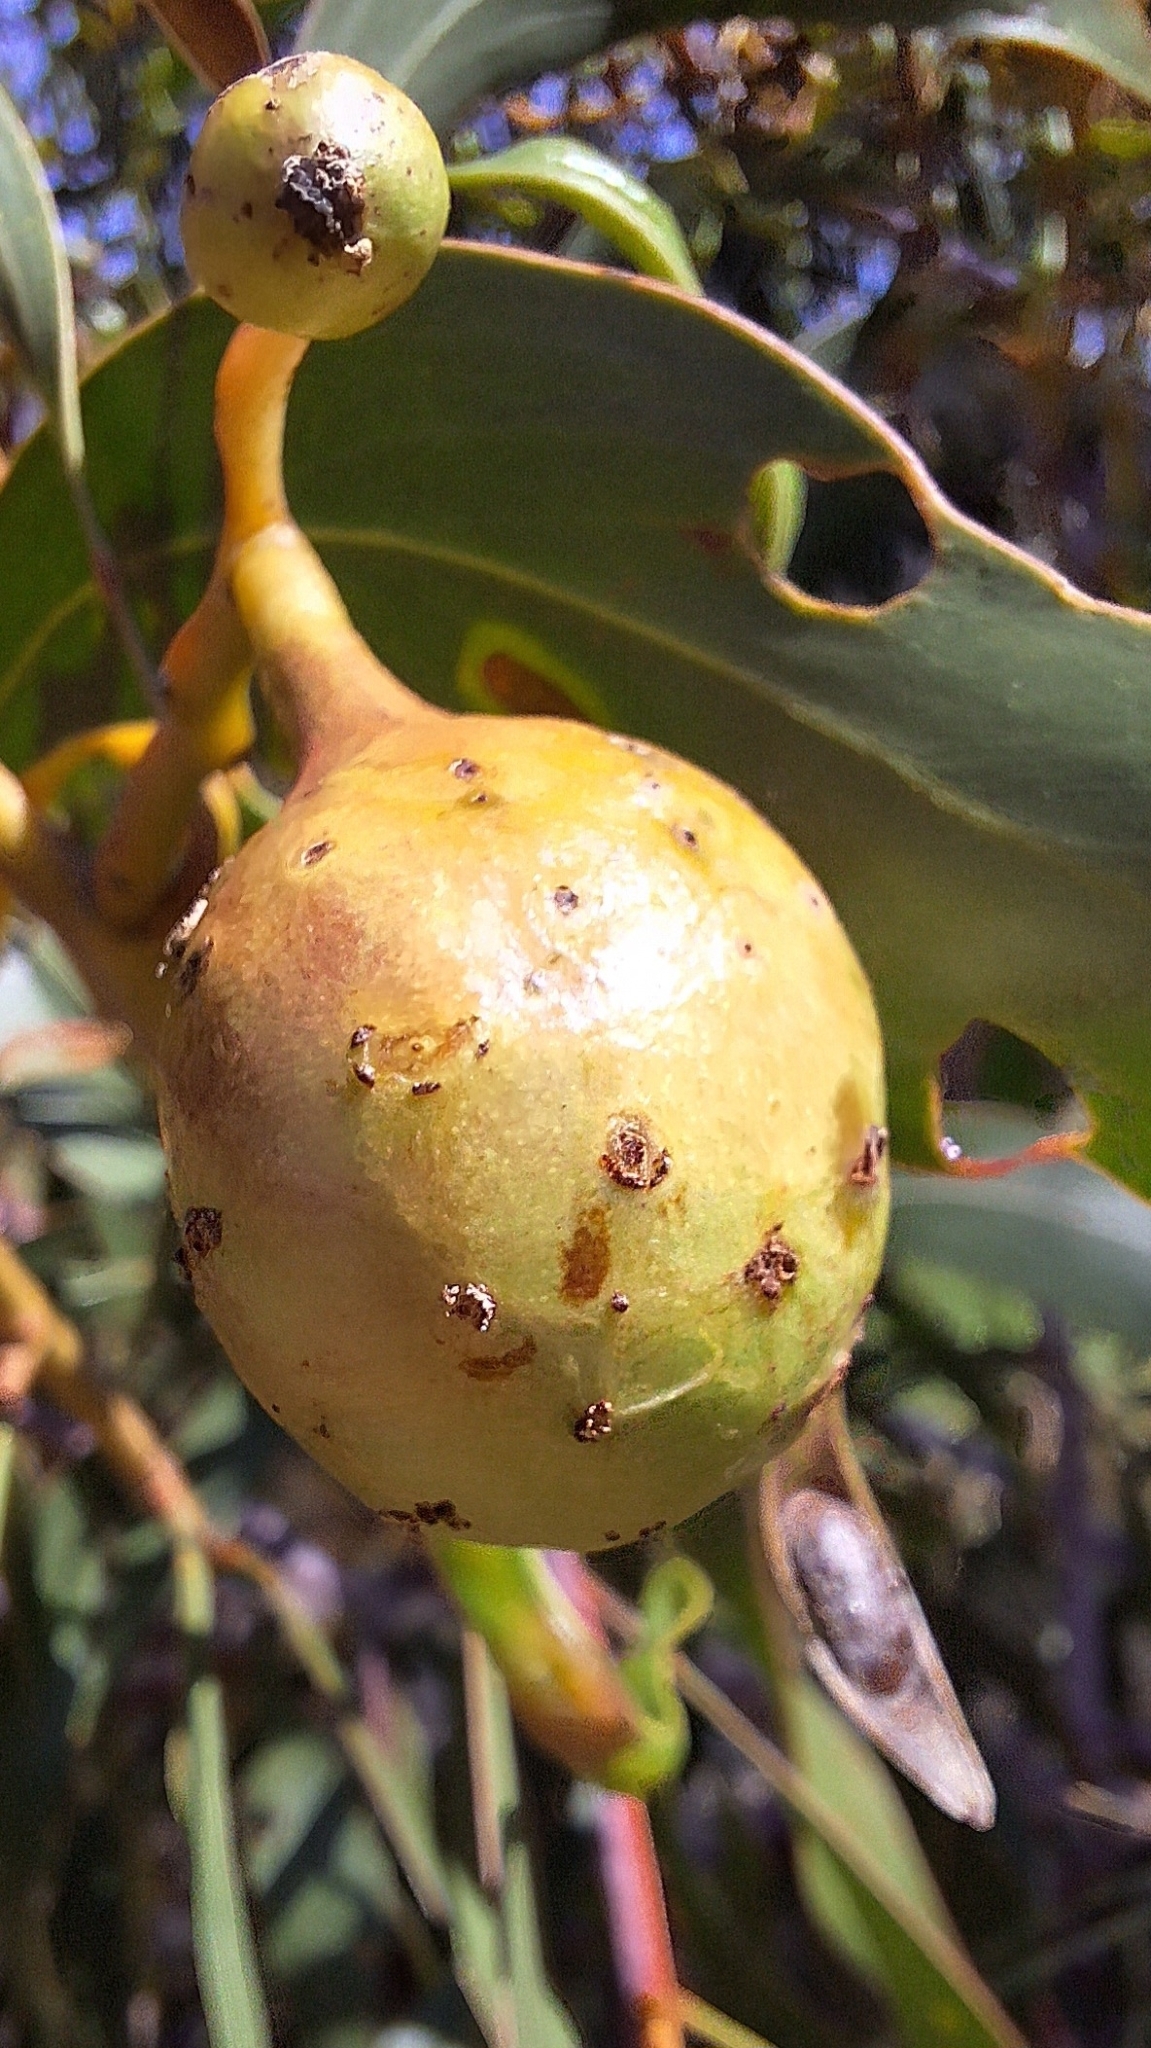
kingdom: Animalia
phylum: Arthropoda
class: Insecta
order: Hymenoptera
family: Pteromalidae
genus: Trichilogaster
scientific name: Trichilogaster signiventris
